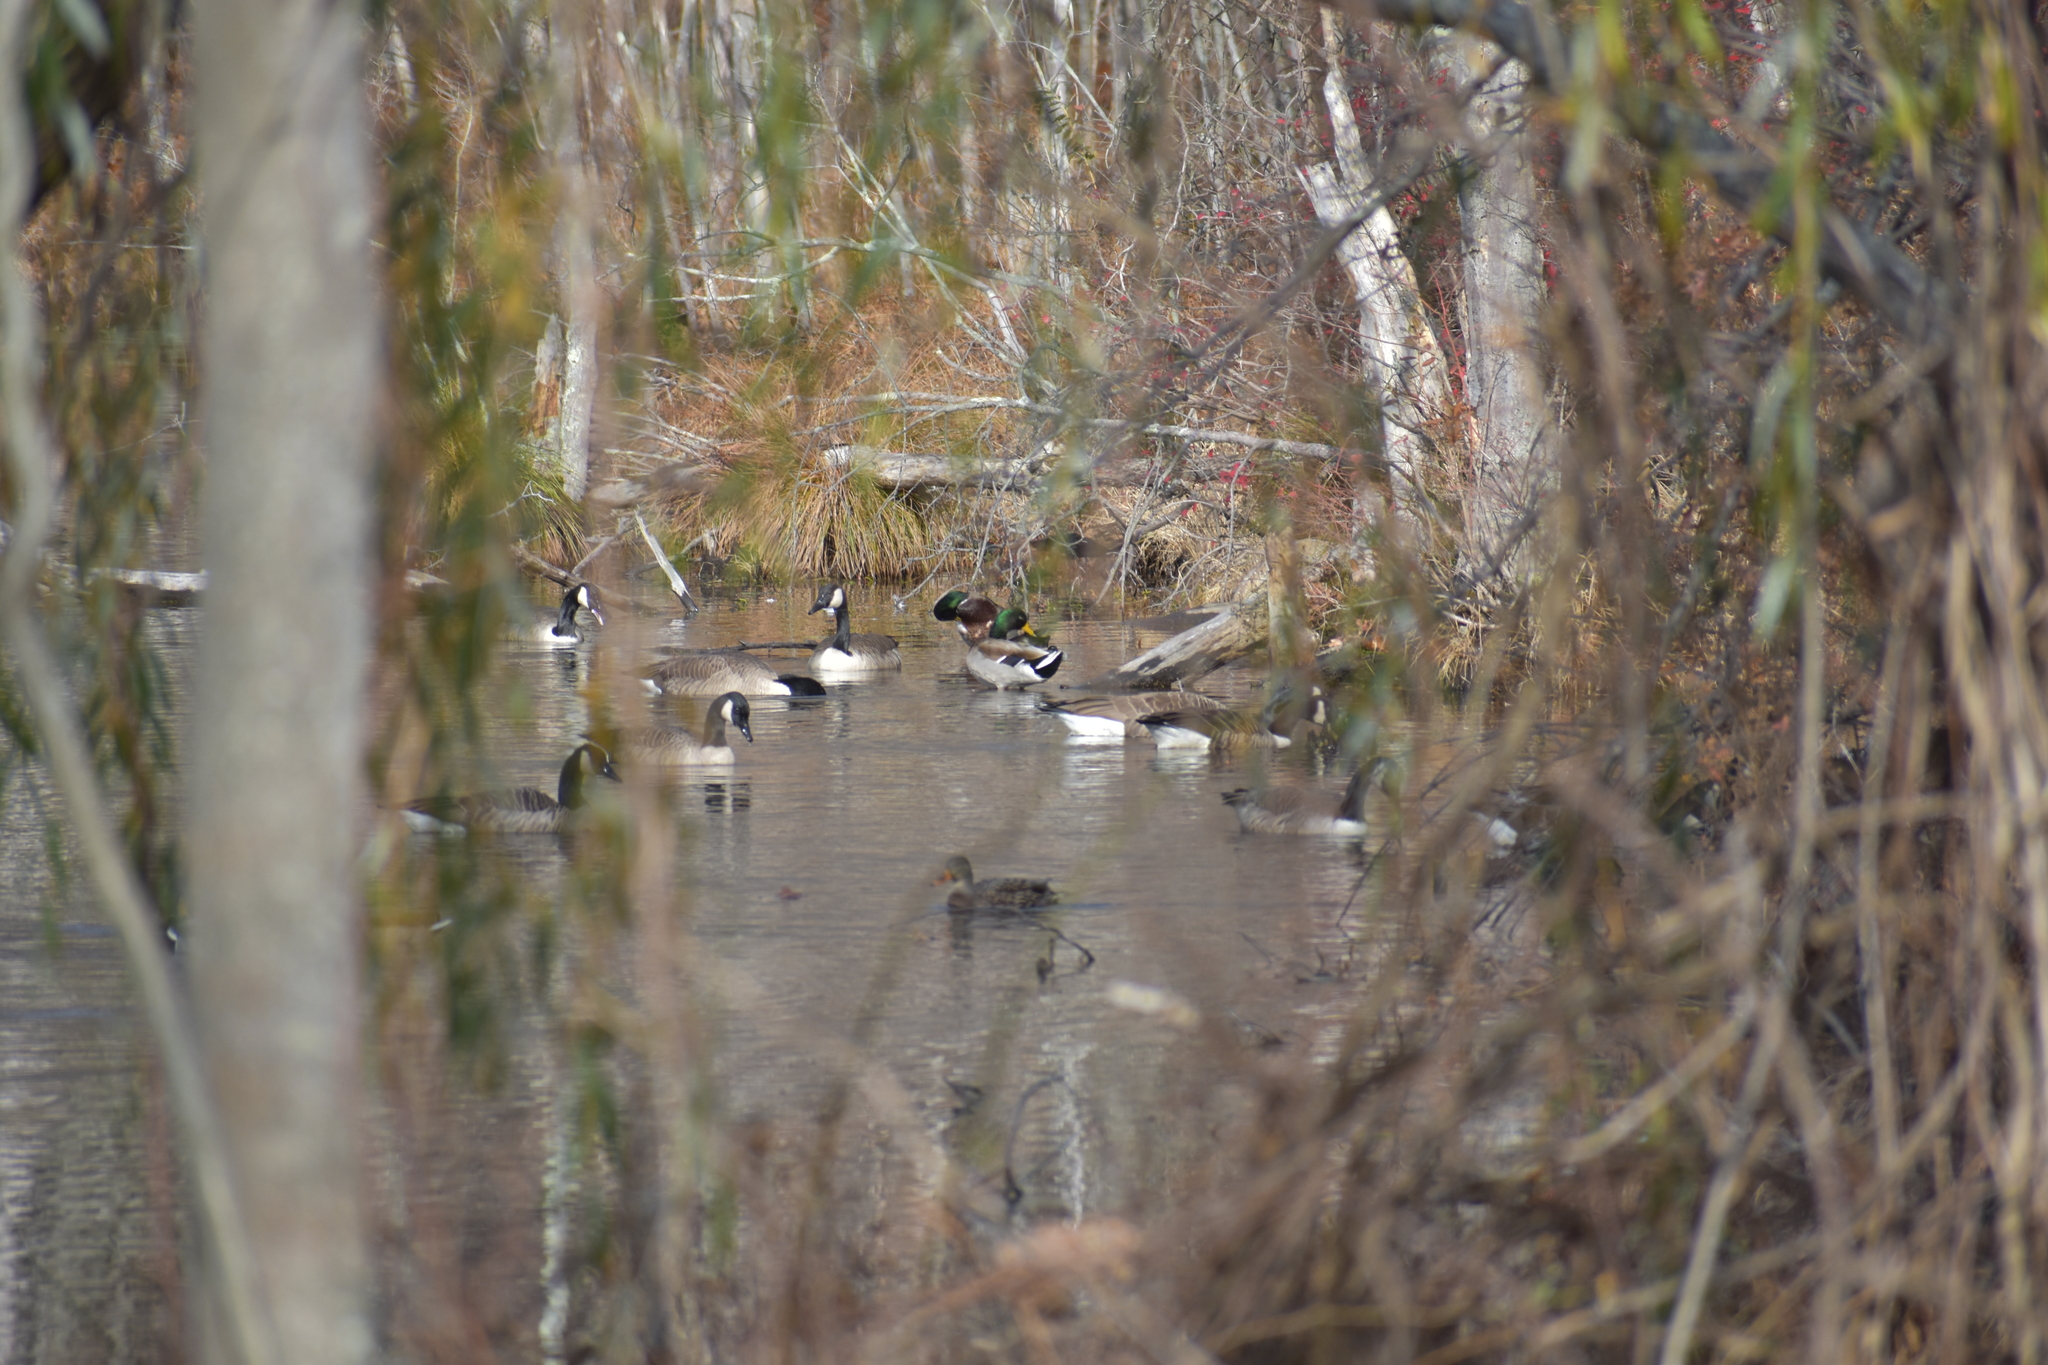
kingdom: Animalia
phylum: Chordata
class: Aves
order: Anseriformes
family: Anatidae
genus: Branta
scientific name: Branta canadensis
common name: Canada goose
